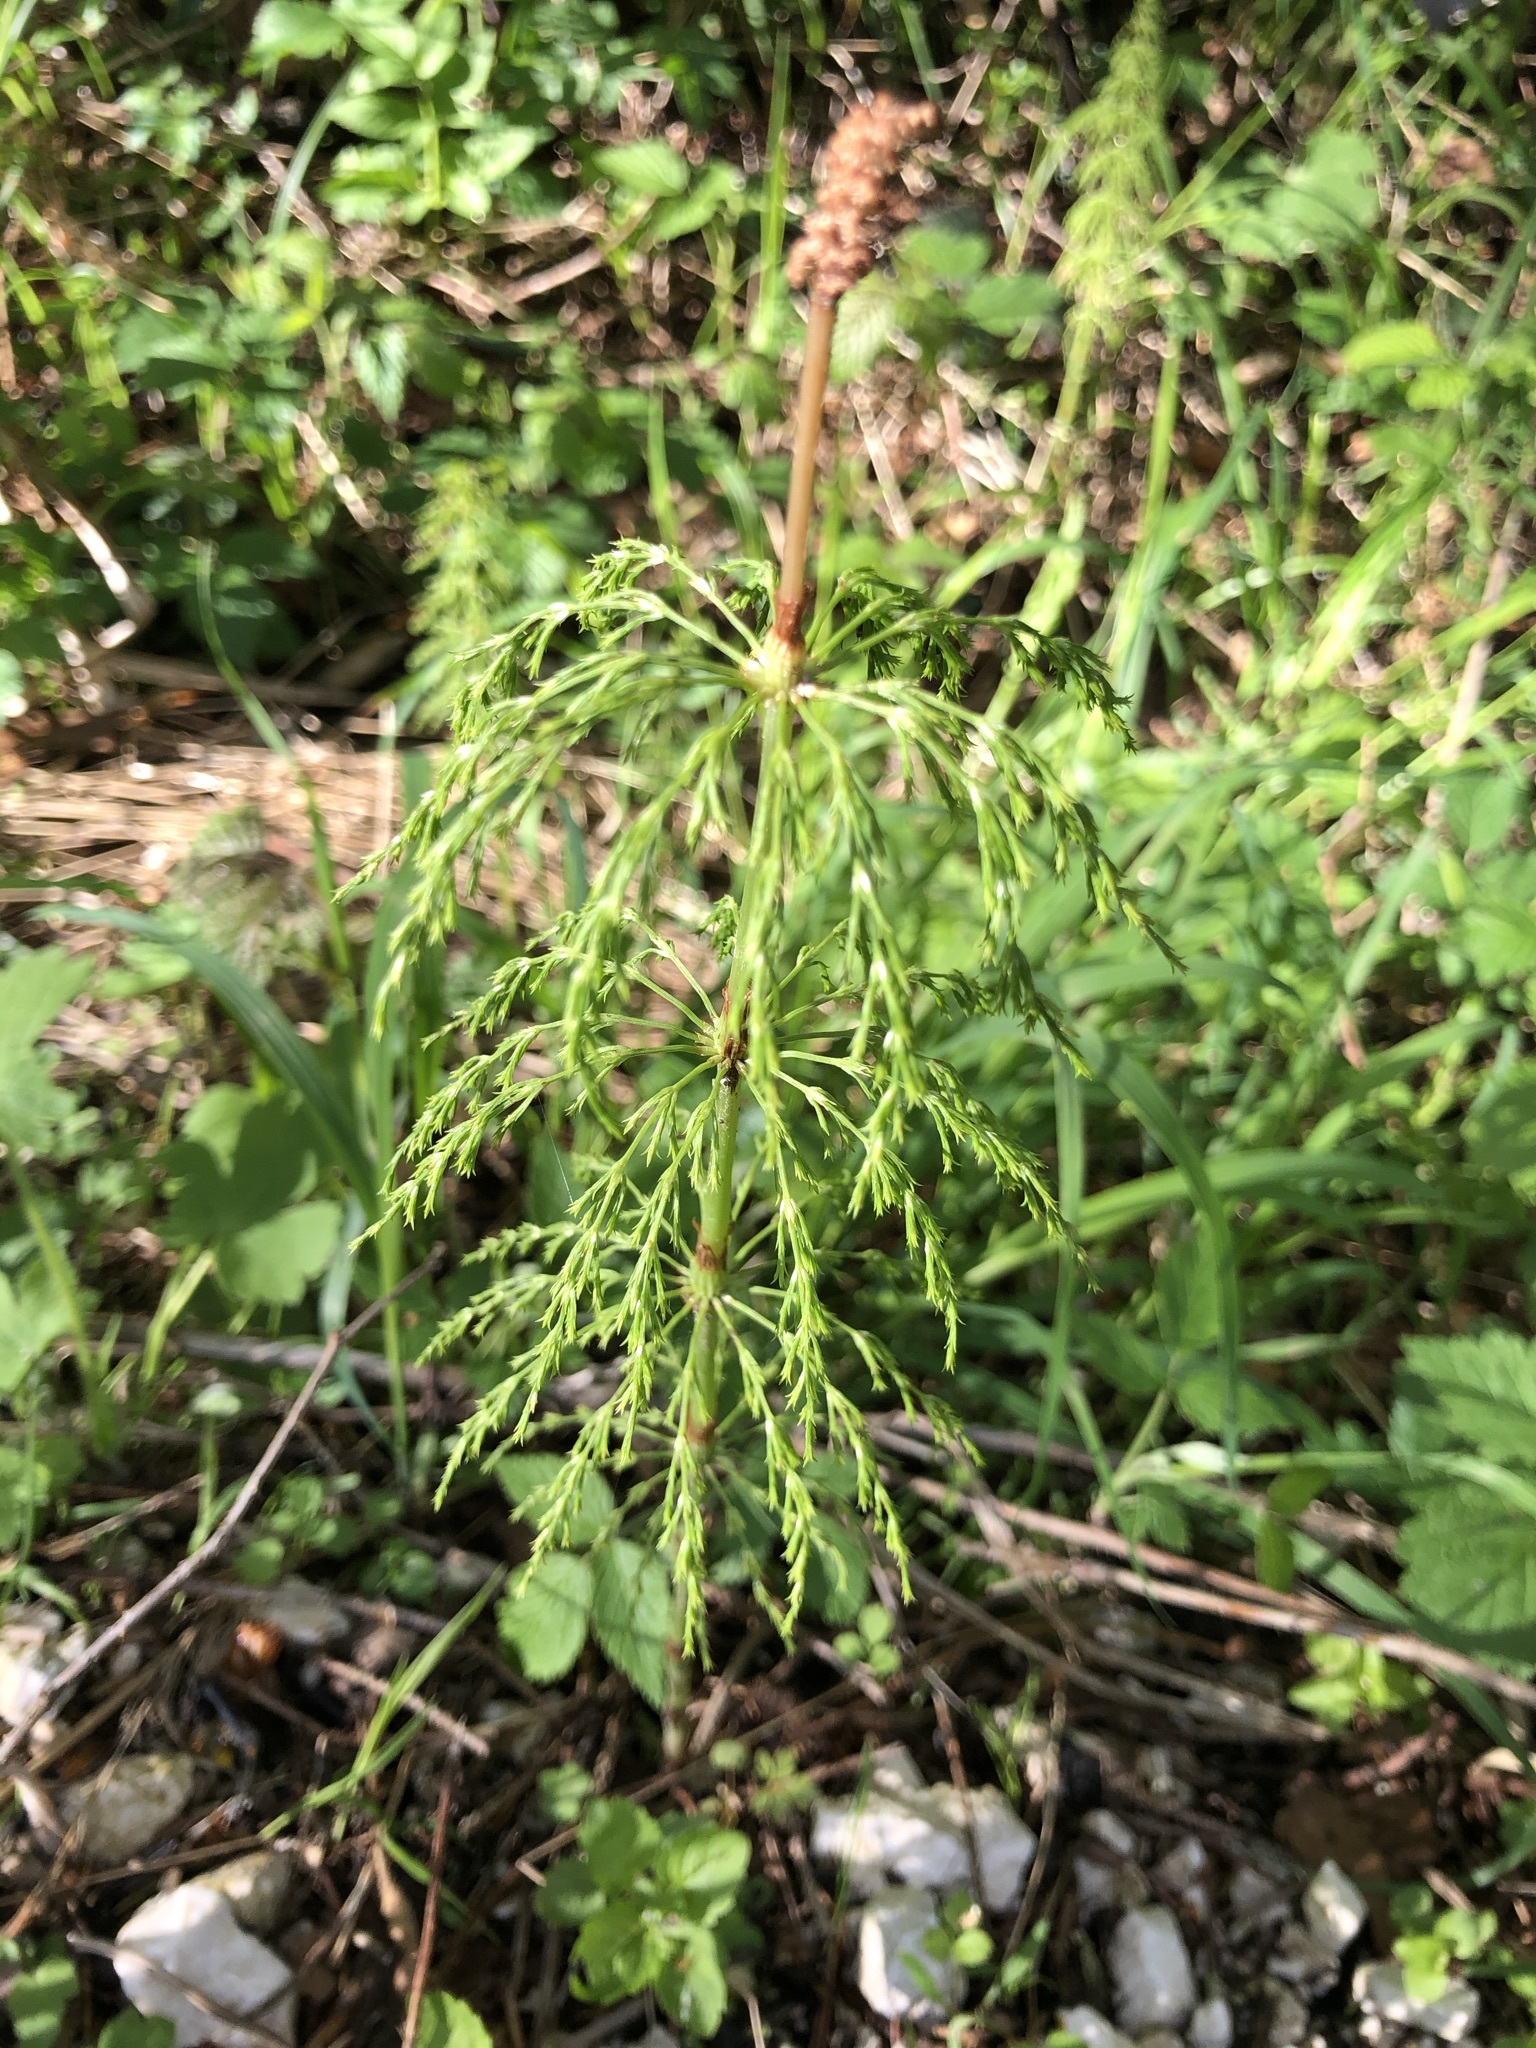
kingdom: Plantae
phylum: Tracheophyta
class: Polypodiopsida
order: Equisetales
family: Equisetaceae
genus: Equisetum
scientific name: Equisetum sylvaticum
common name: Wood horsetail
